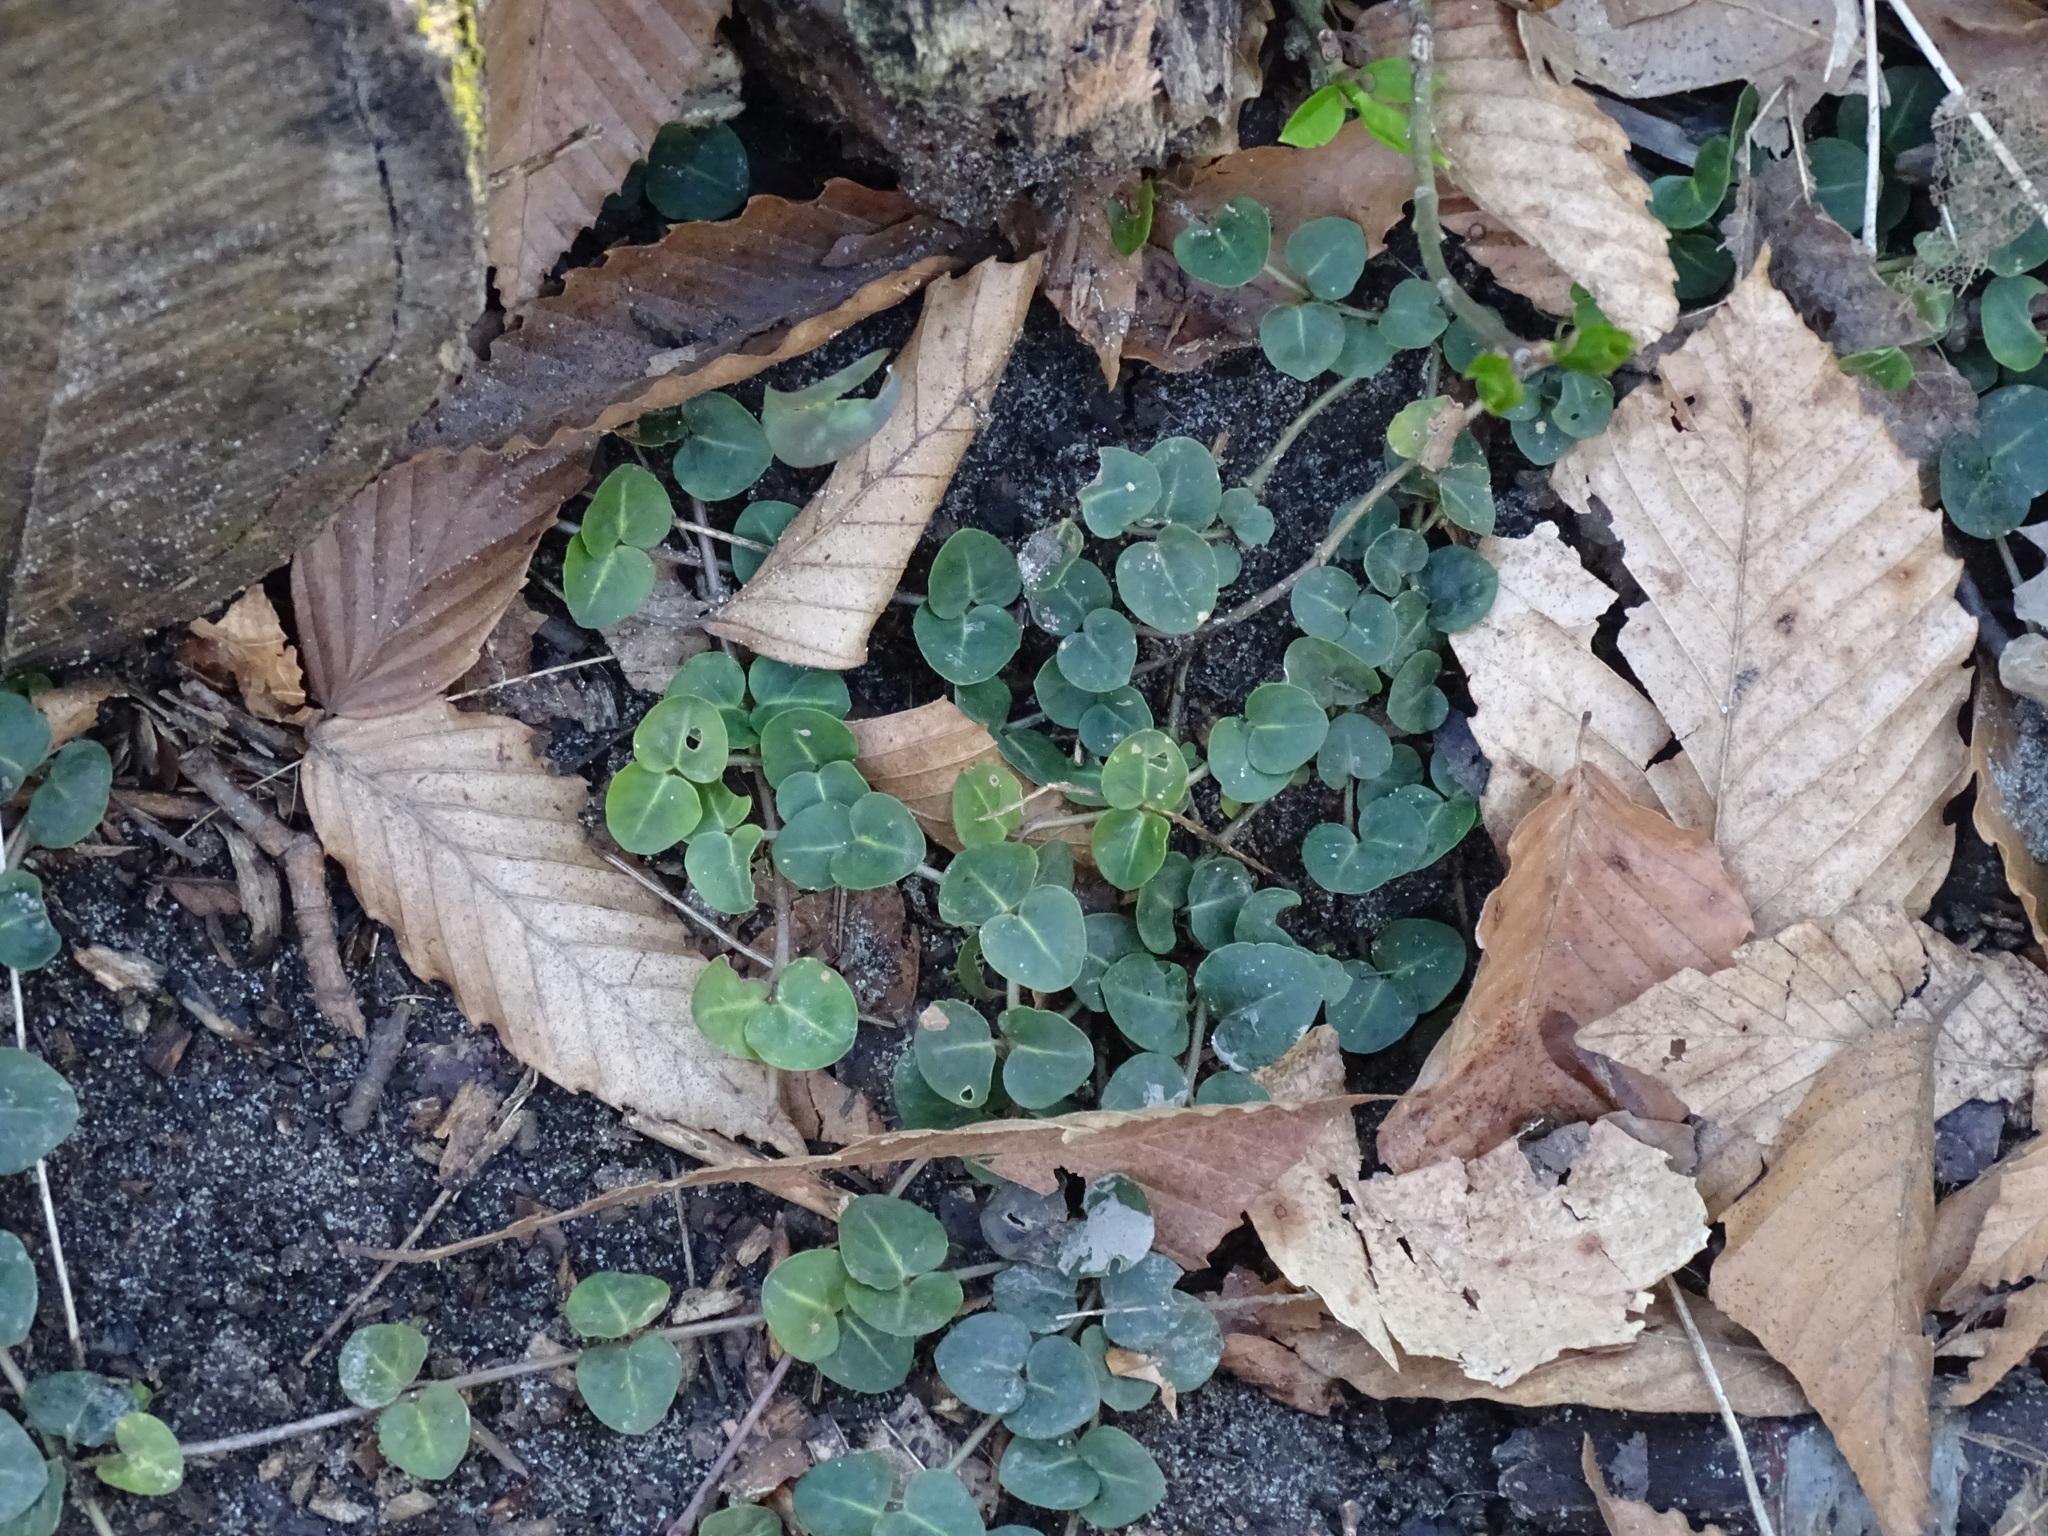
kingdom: Plantae
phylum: Tracheophyta
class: Magnoliopsida
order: Gentianales
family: Rubiaceae
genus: Mitchella
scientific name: Mitchella repens
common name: Partridge-berry
